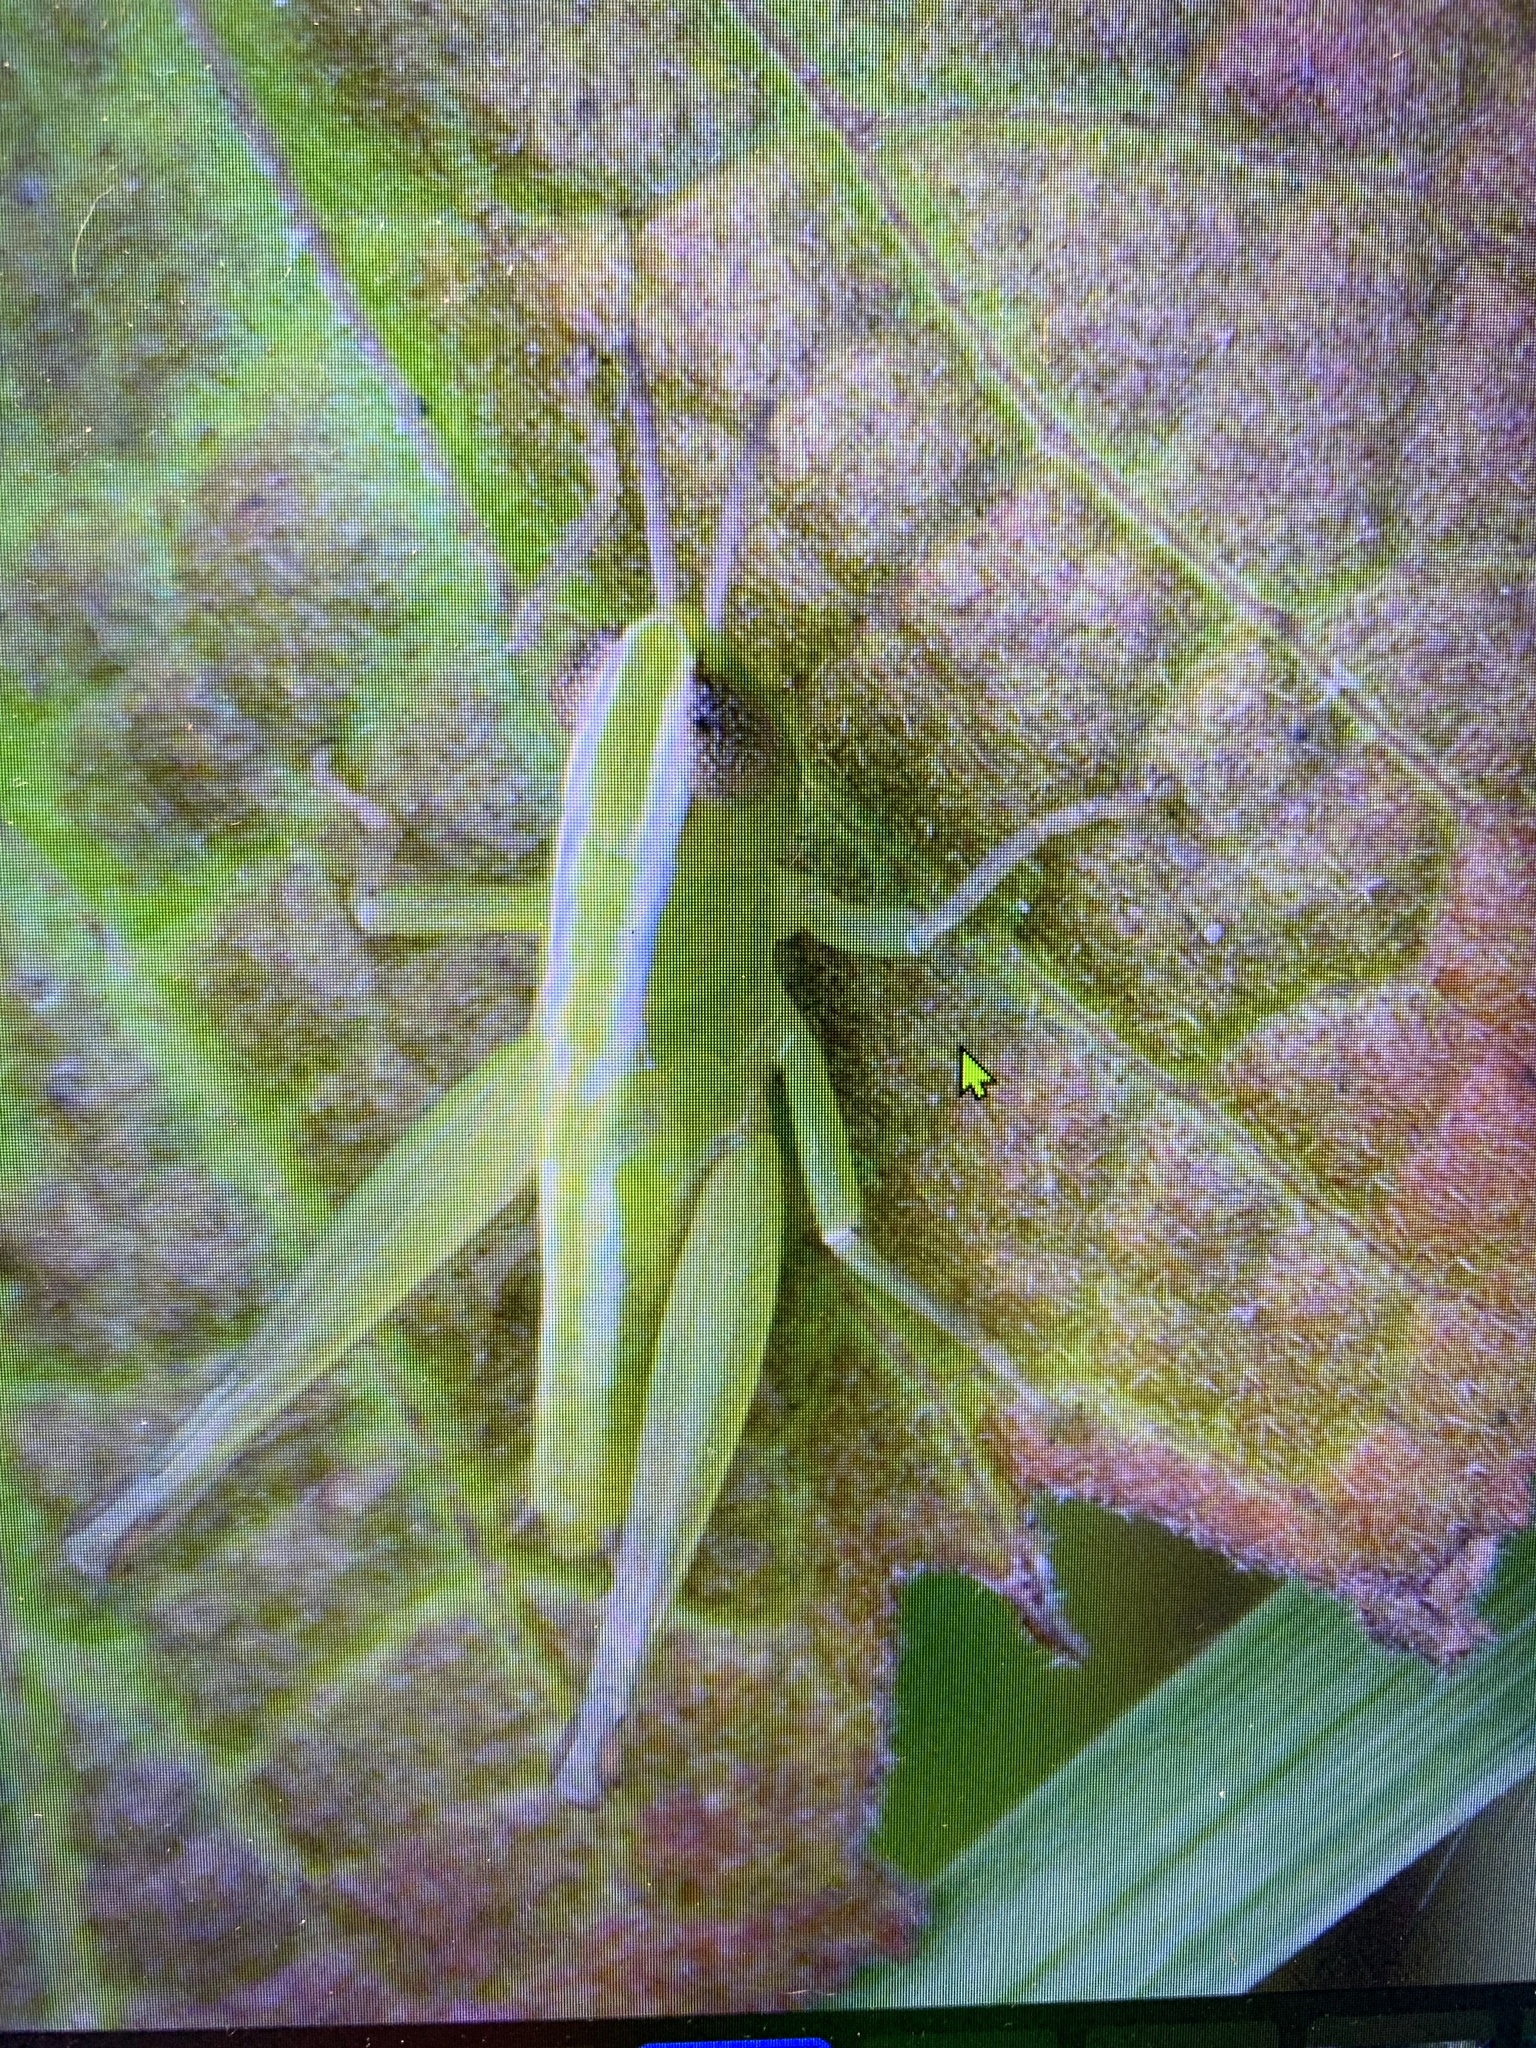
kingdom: Animalia
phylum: Arthropoda
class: Insecta
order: Orthoptera
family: Acrididae
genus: Dichromorpha
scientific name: Dichromorpha elegans
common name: Elegant grasshopper
